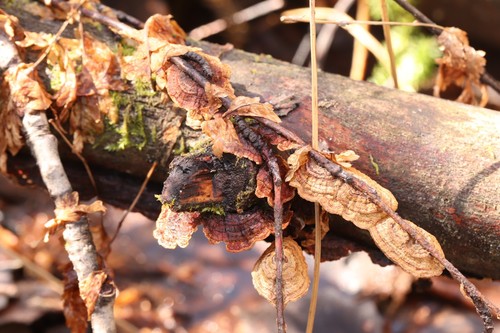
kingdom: Fungi
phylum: Basidiomycota
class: Agaricomycetes
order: Hymenochaetales
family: Hymenochaetaceae
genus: Hydnoporia
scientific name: Hydnoporia tabacina
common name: Willow glue
